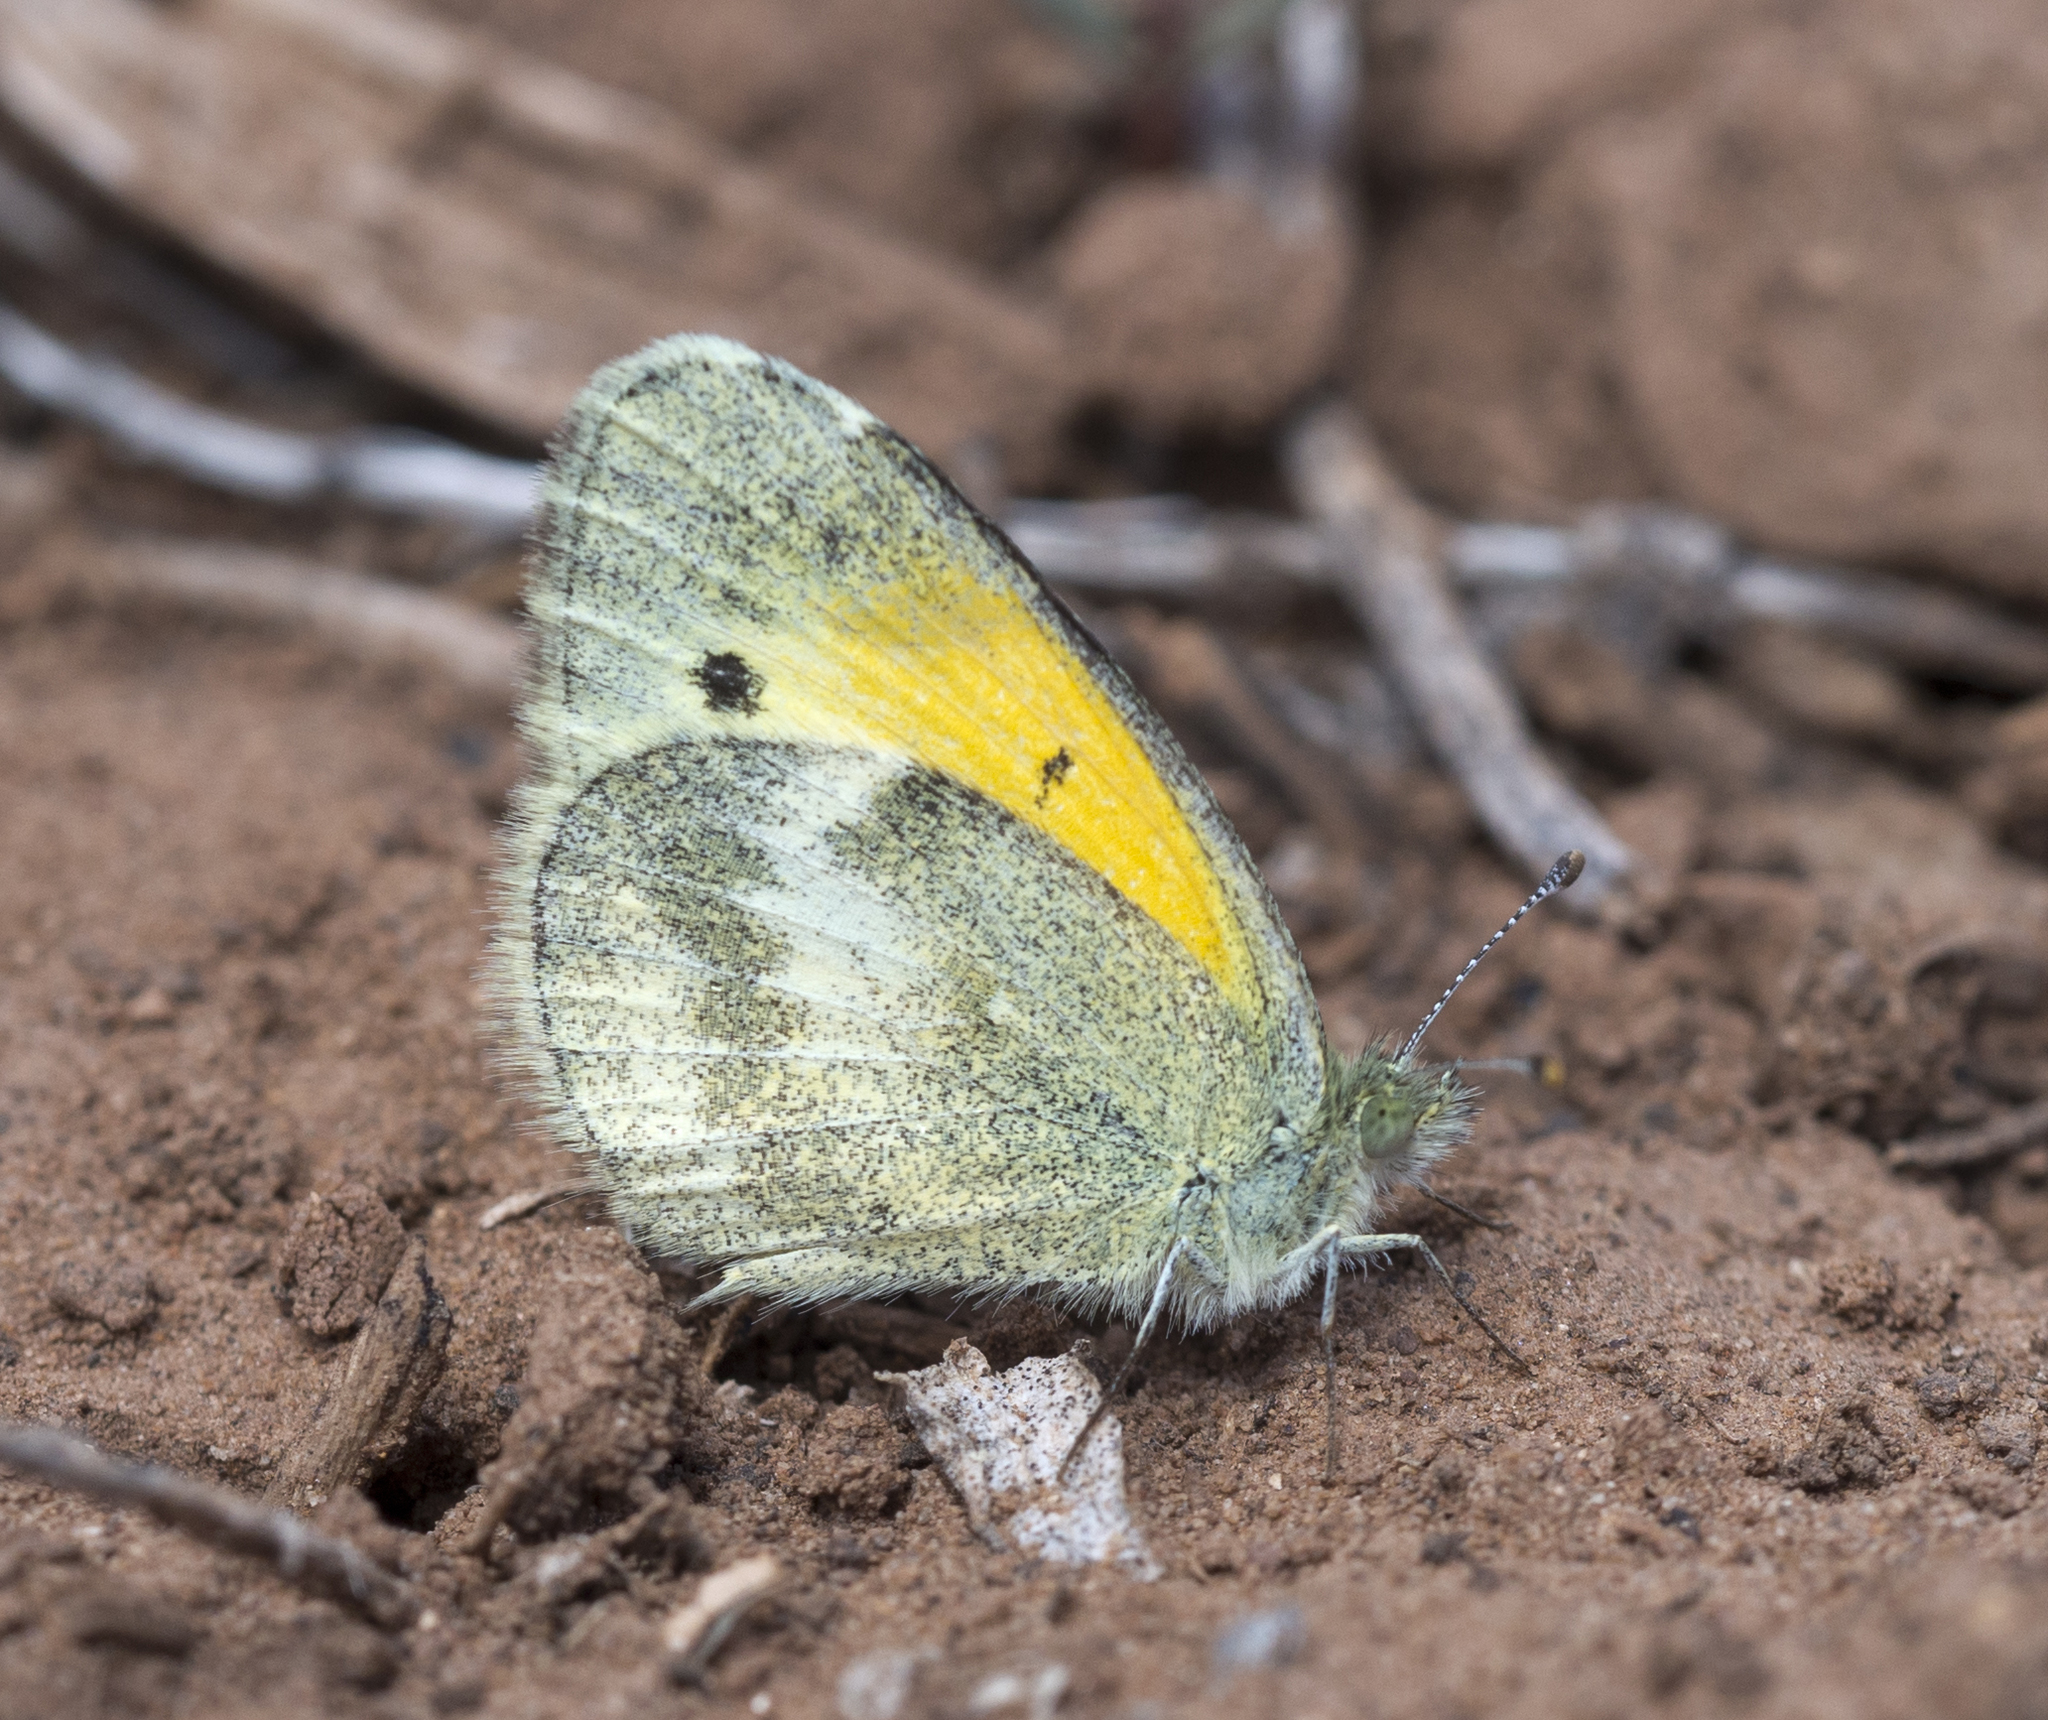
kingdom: Animalia
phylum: Arthropoda
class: Insecta
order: Lepidoptera
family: Pieridae
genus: Nathalis
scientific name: Nathalis iole
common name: Dainty sulphur
